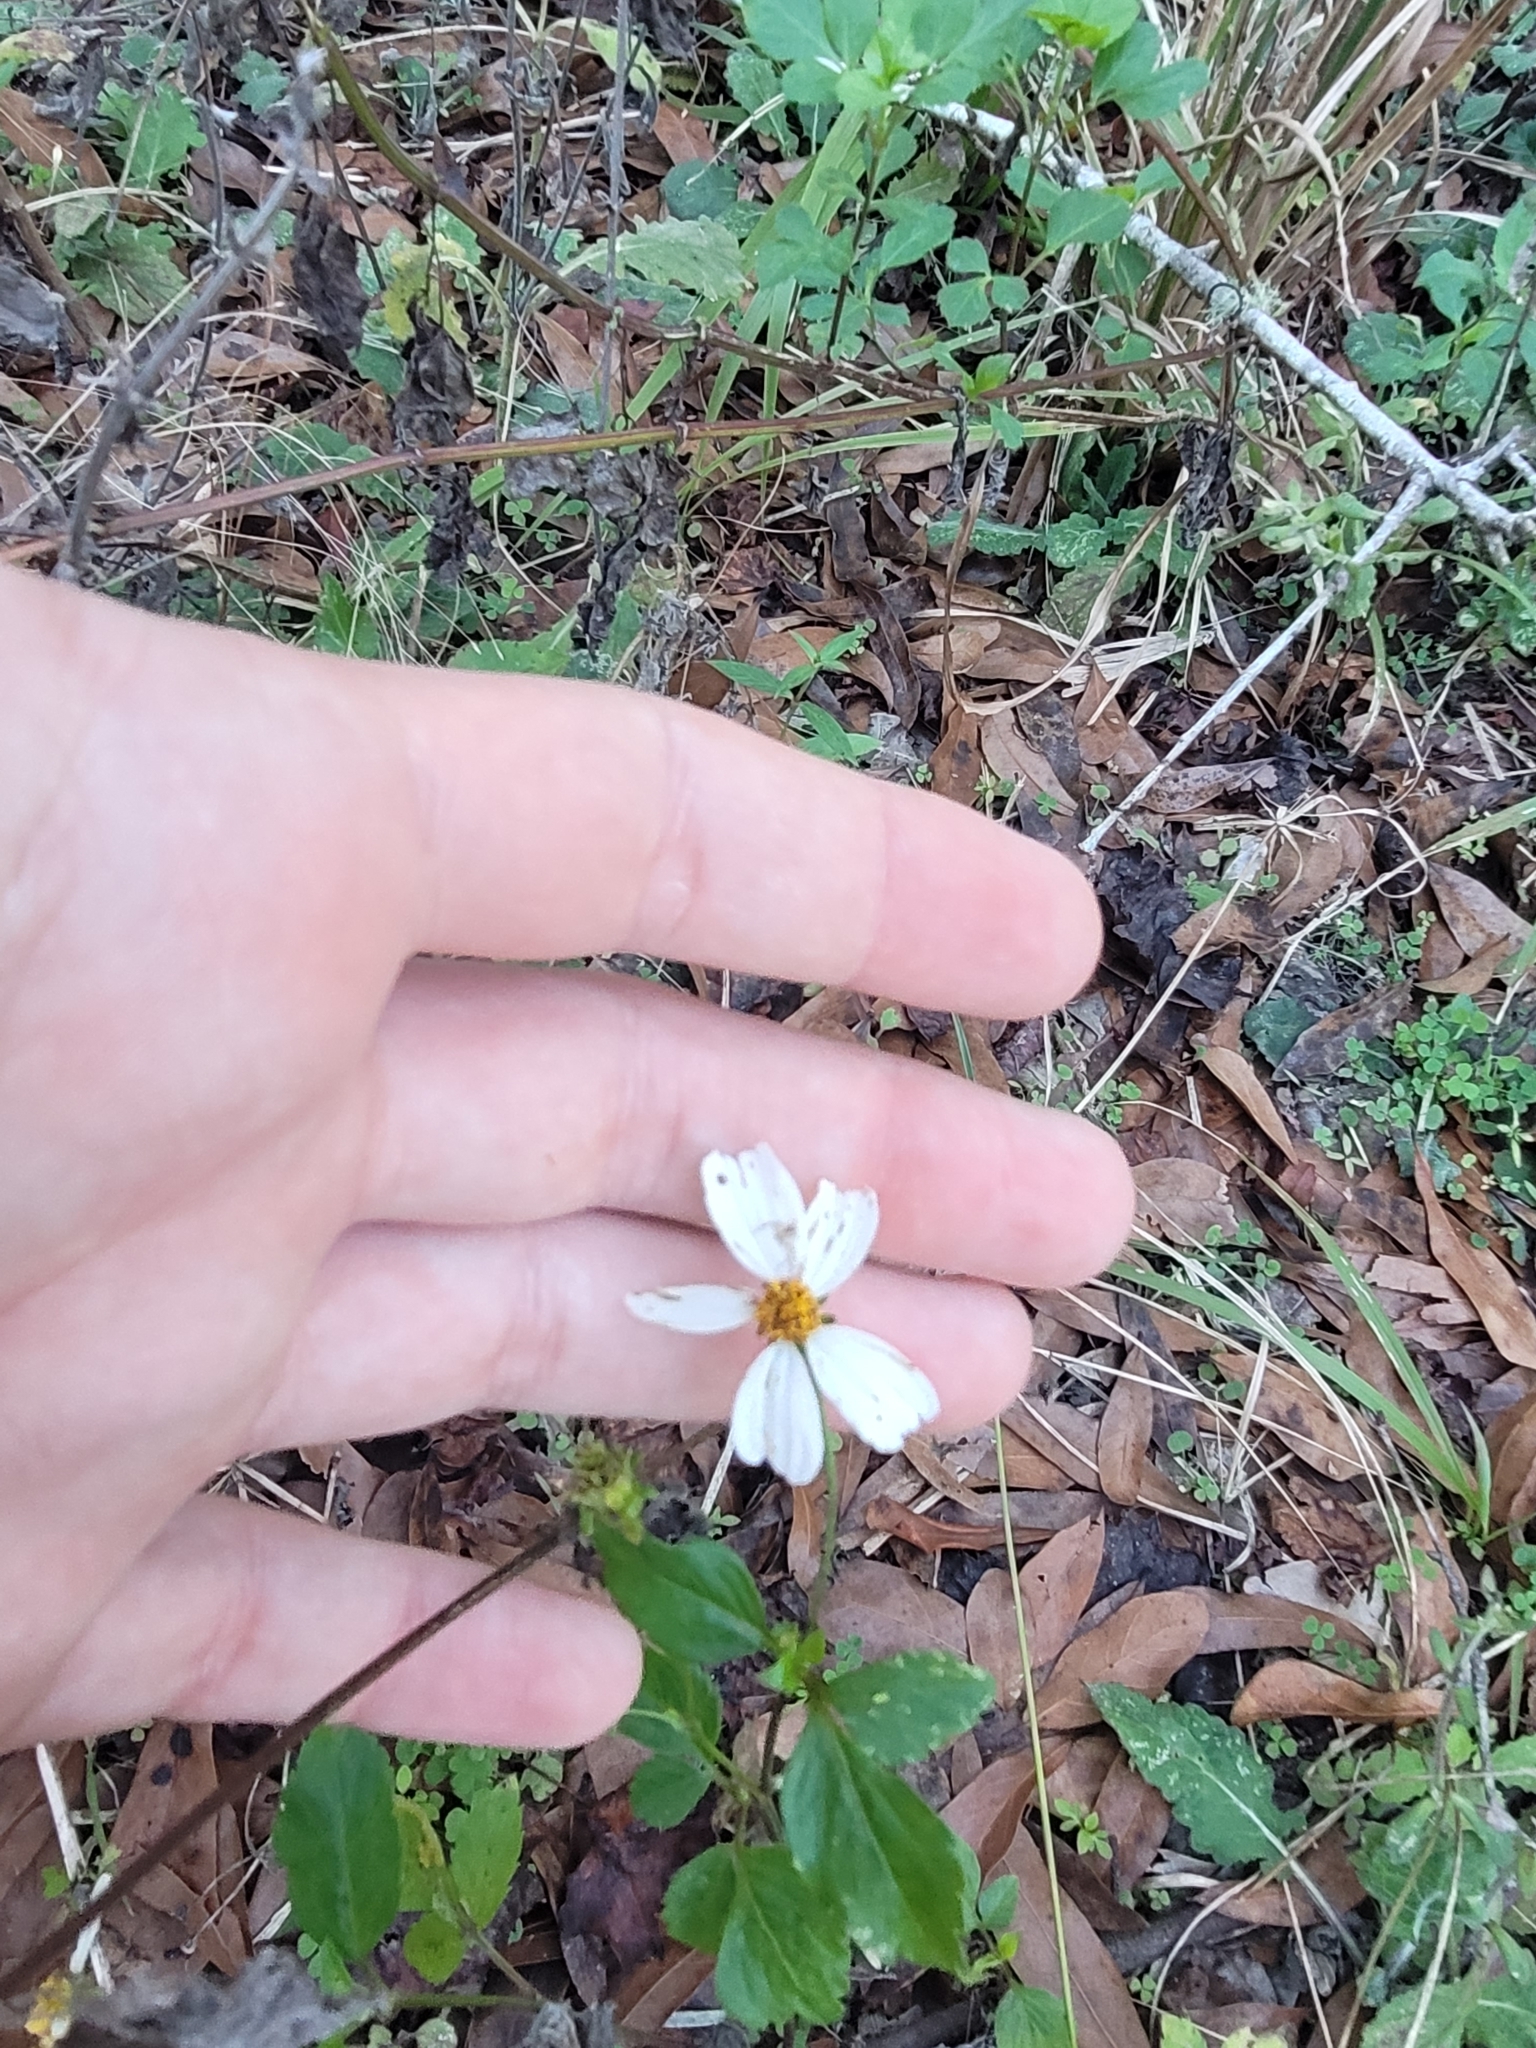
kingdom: Plantae
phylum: Tracheophyta
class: Magnoliopsida
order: Asterales
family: Asteraceae
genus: Bidens
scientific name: Bidens alba
